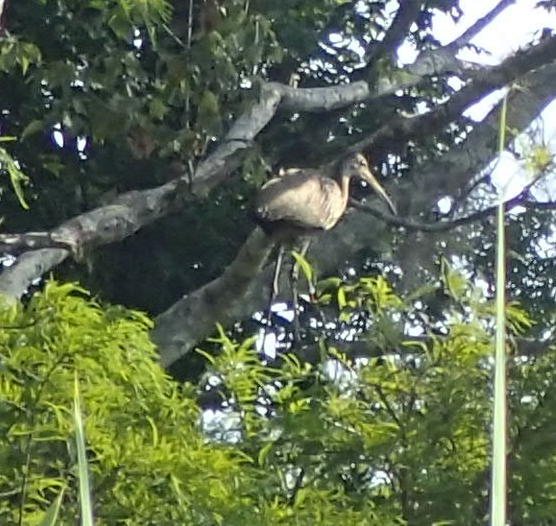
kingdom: Animalia
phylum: Chordata
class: Aves
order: Gruiformes
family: Aramidae
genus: Aramus
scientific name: Aramus guarauna
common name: Limpkin
